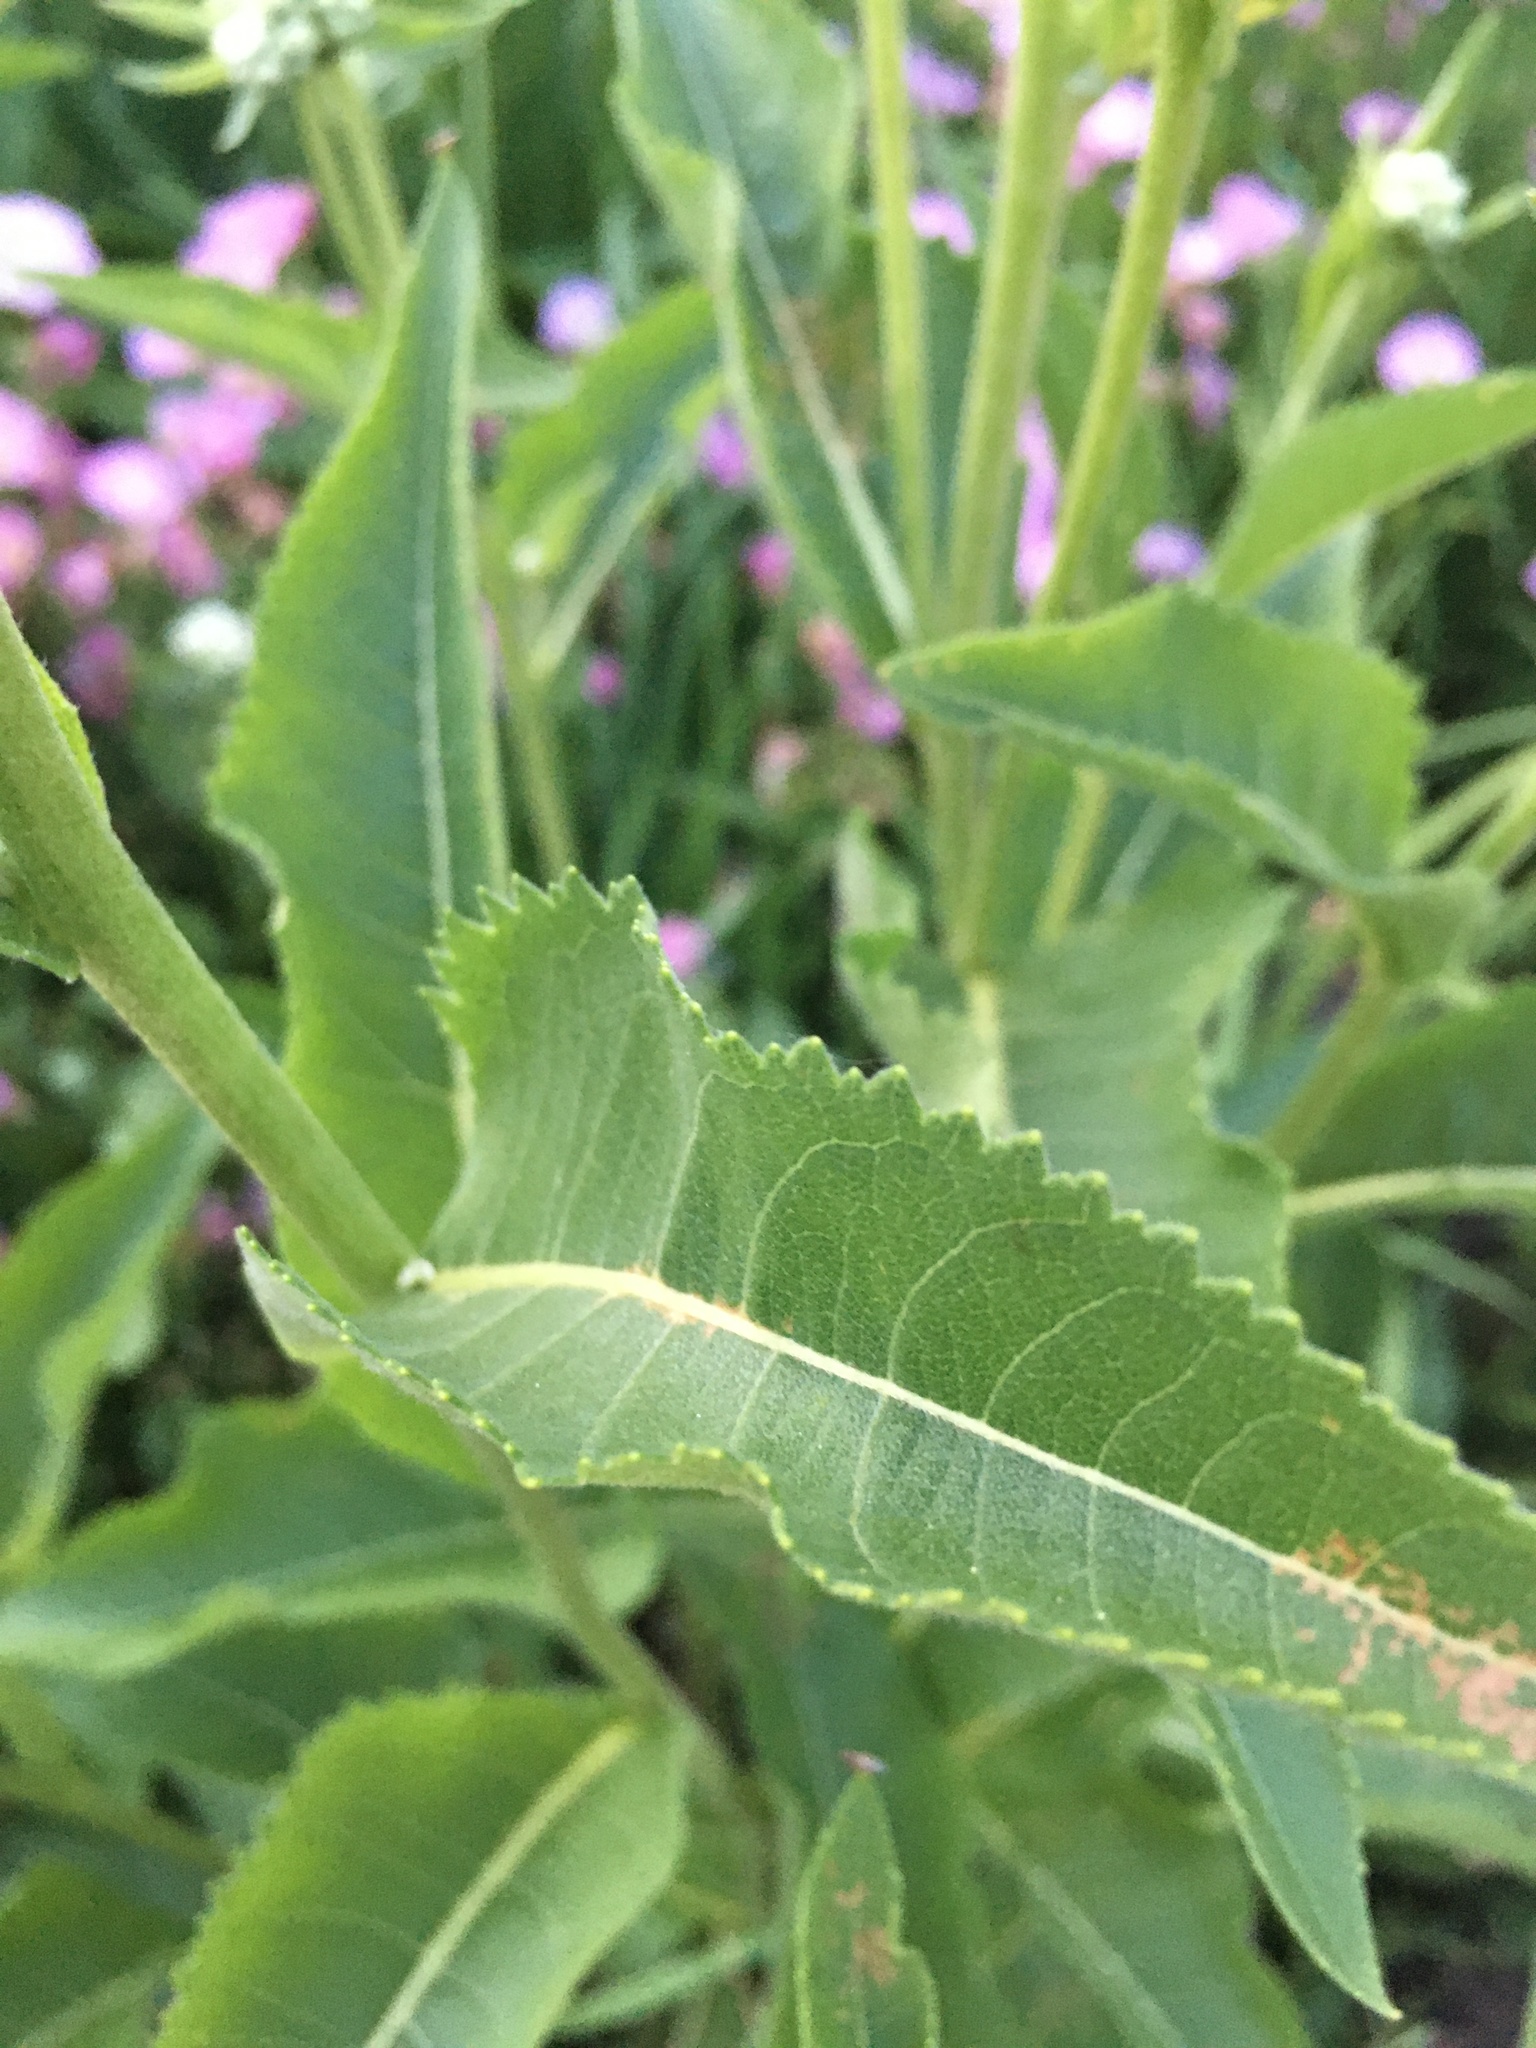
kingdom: Plantae
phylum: Tracheophyta
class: Magnoliopsida
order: Asterales
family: Asteraceae
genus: Parthenium
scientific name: Parthenium integrifolium
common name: American feverfew
